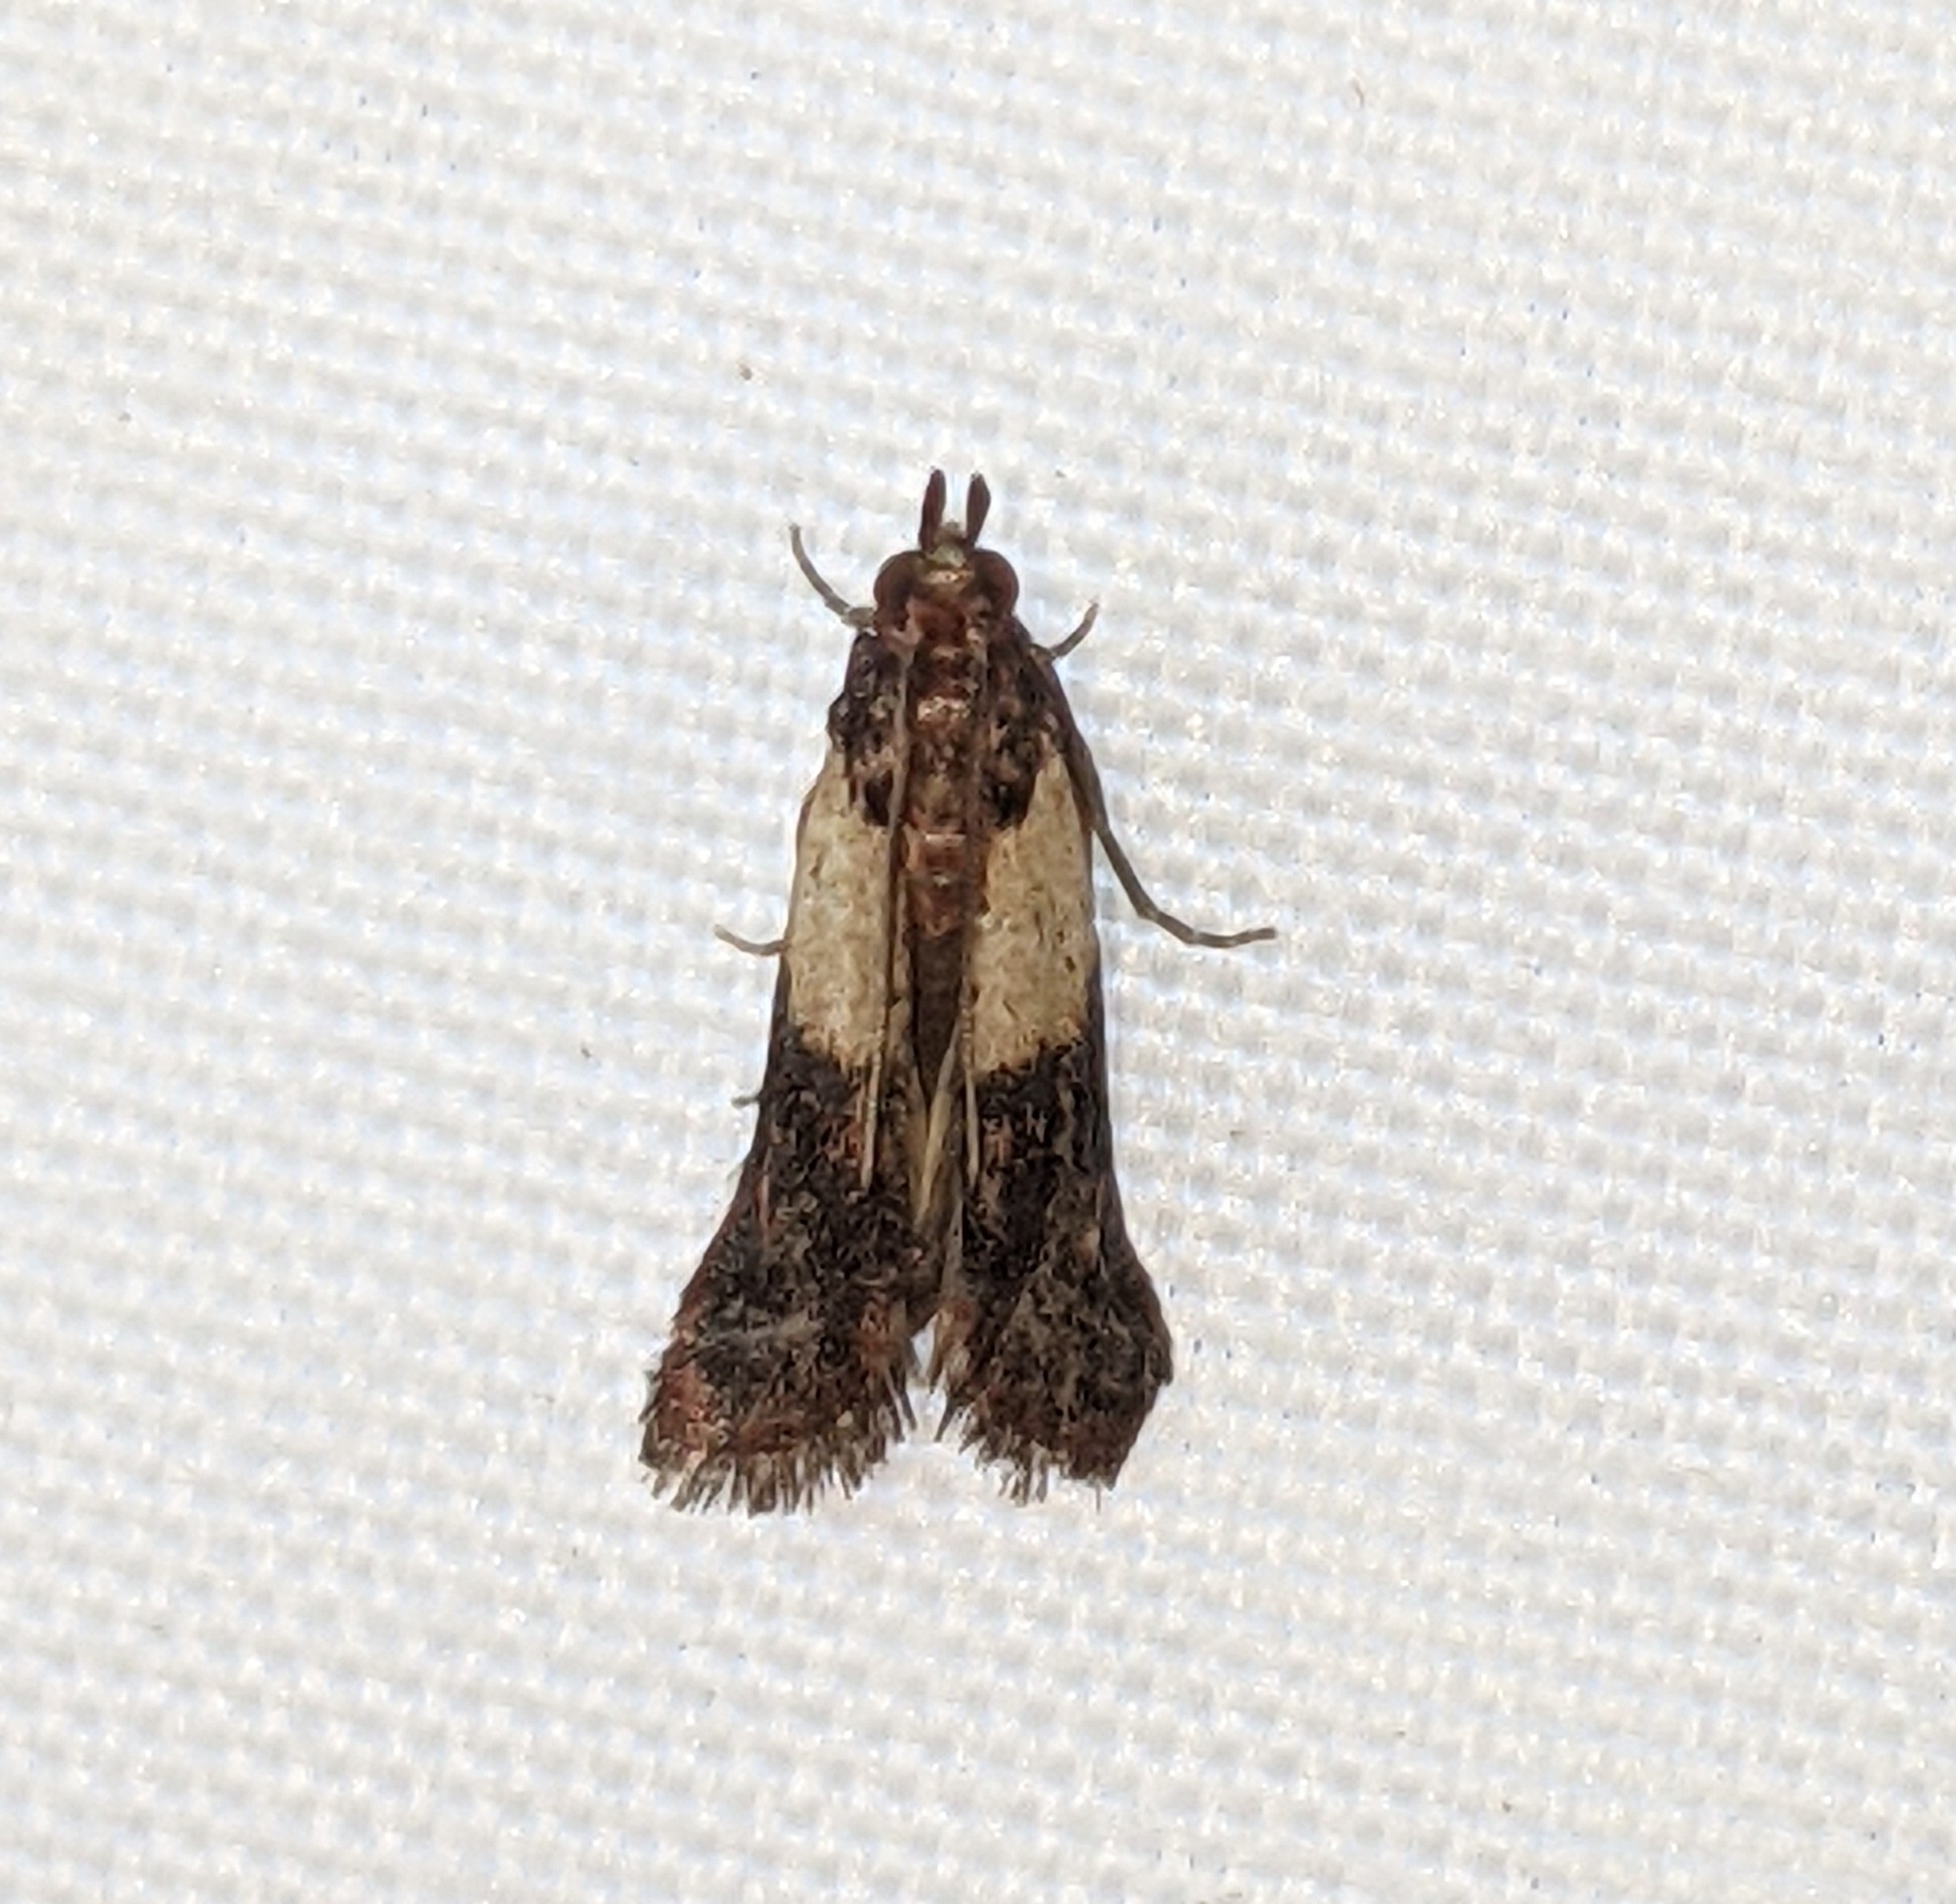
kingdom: Animalia
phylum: Arthropoda
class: Insecta
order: Lepidoptera
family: Pyralidae
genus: Plodia
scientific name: Plodia interpunctella
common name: Indian meal moth
